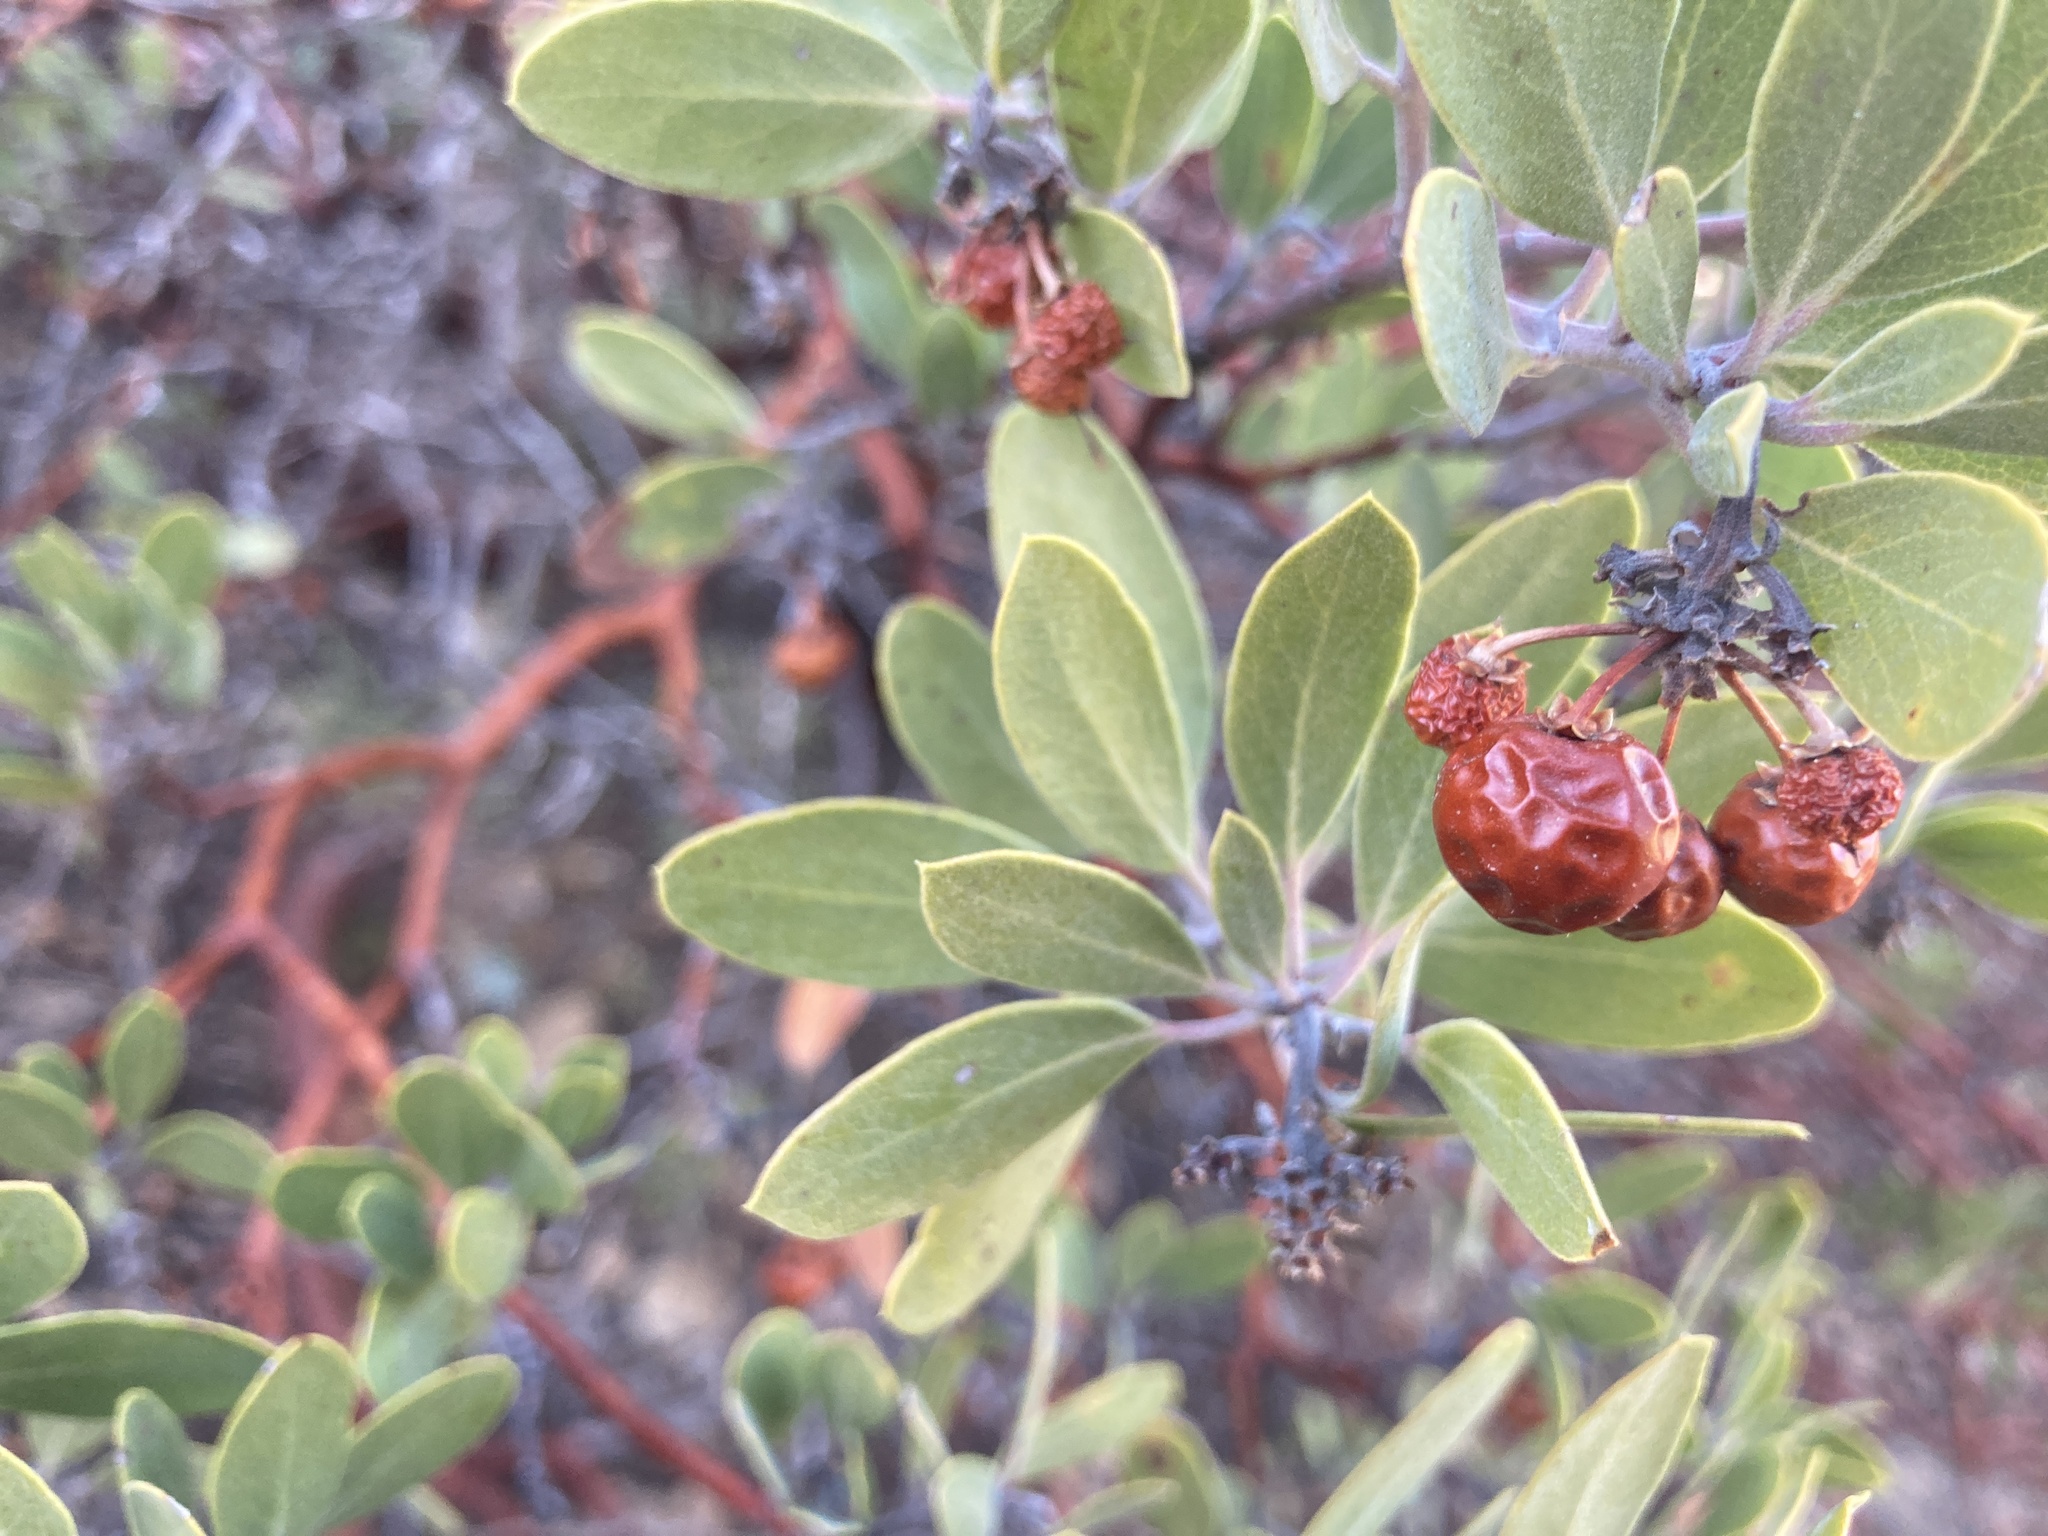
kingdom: Plantae
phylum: Tracheophyta
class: Magnoliopsida
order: Ericales
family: Ericaceae
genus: Arctostaphylos
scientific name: Arctostaphylos pungens
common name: Mexican manzanita
